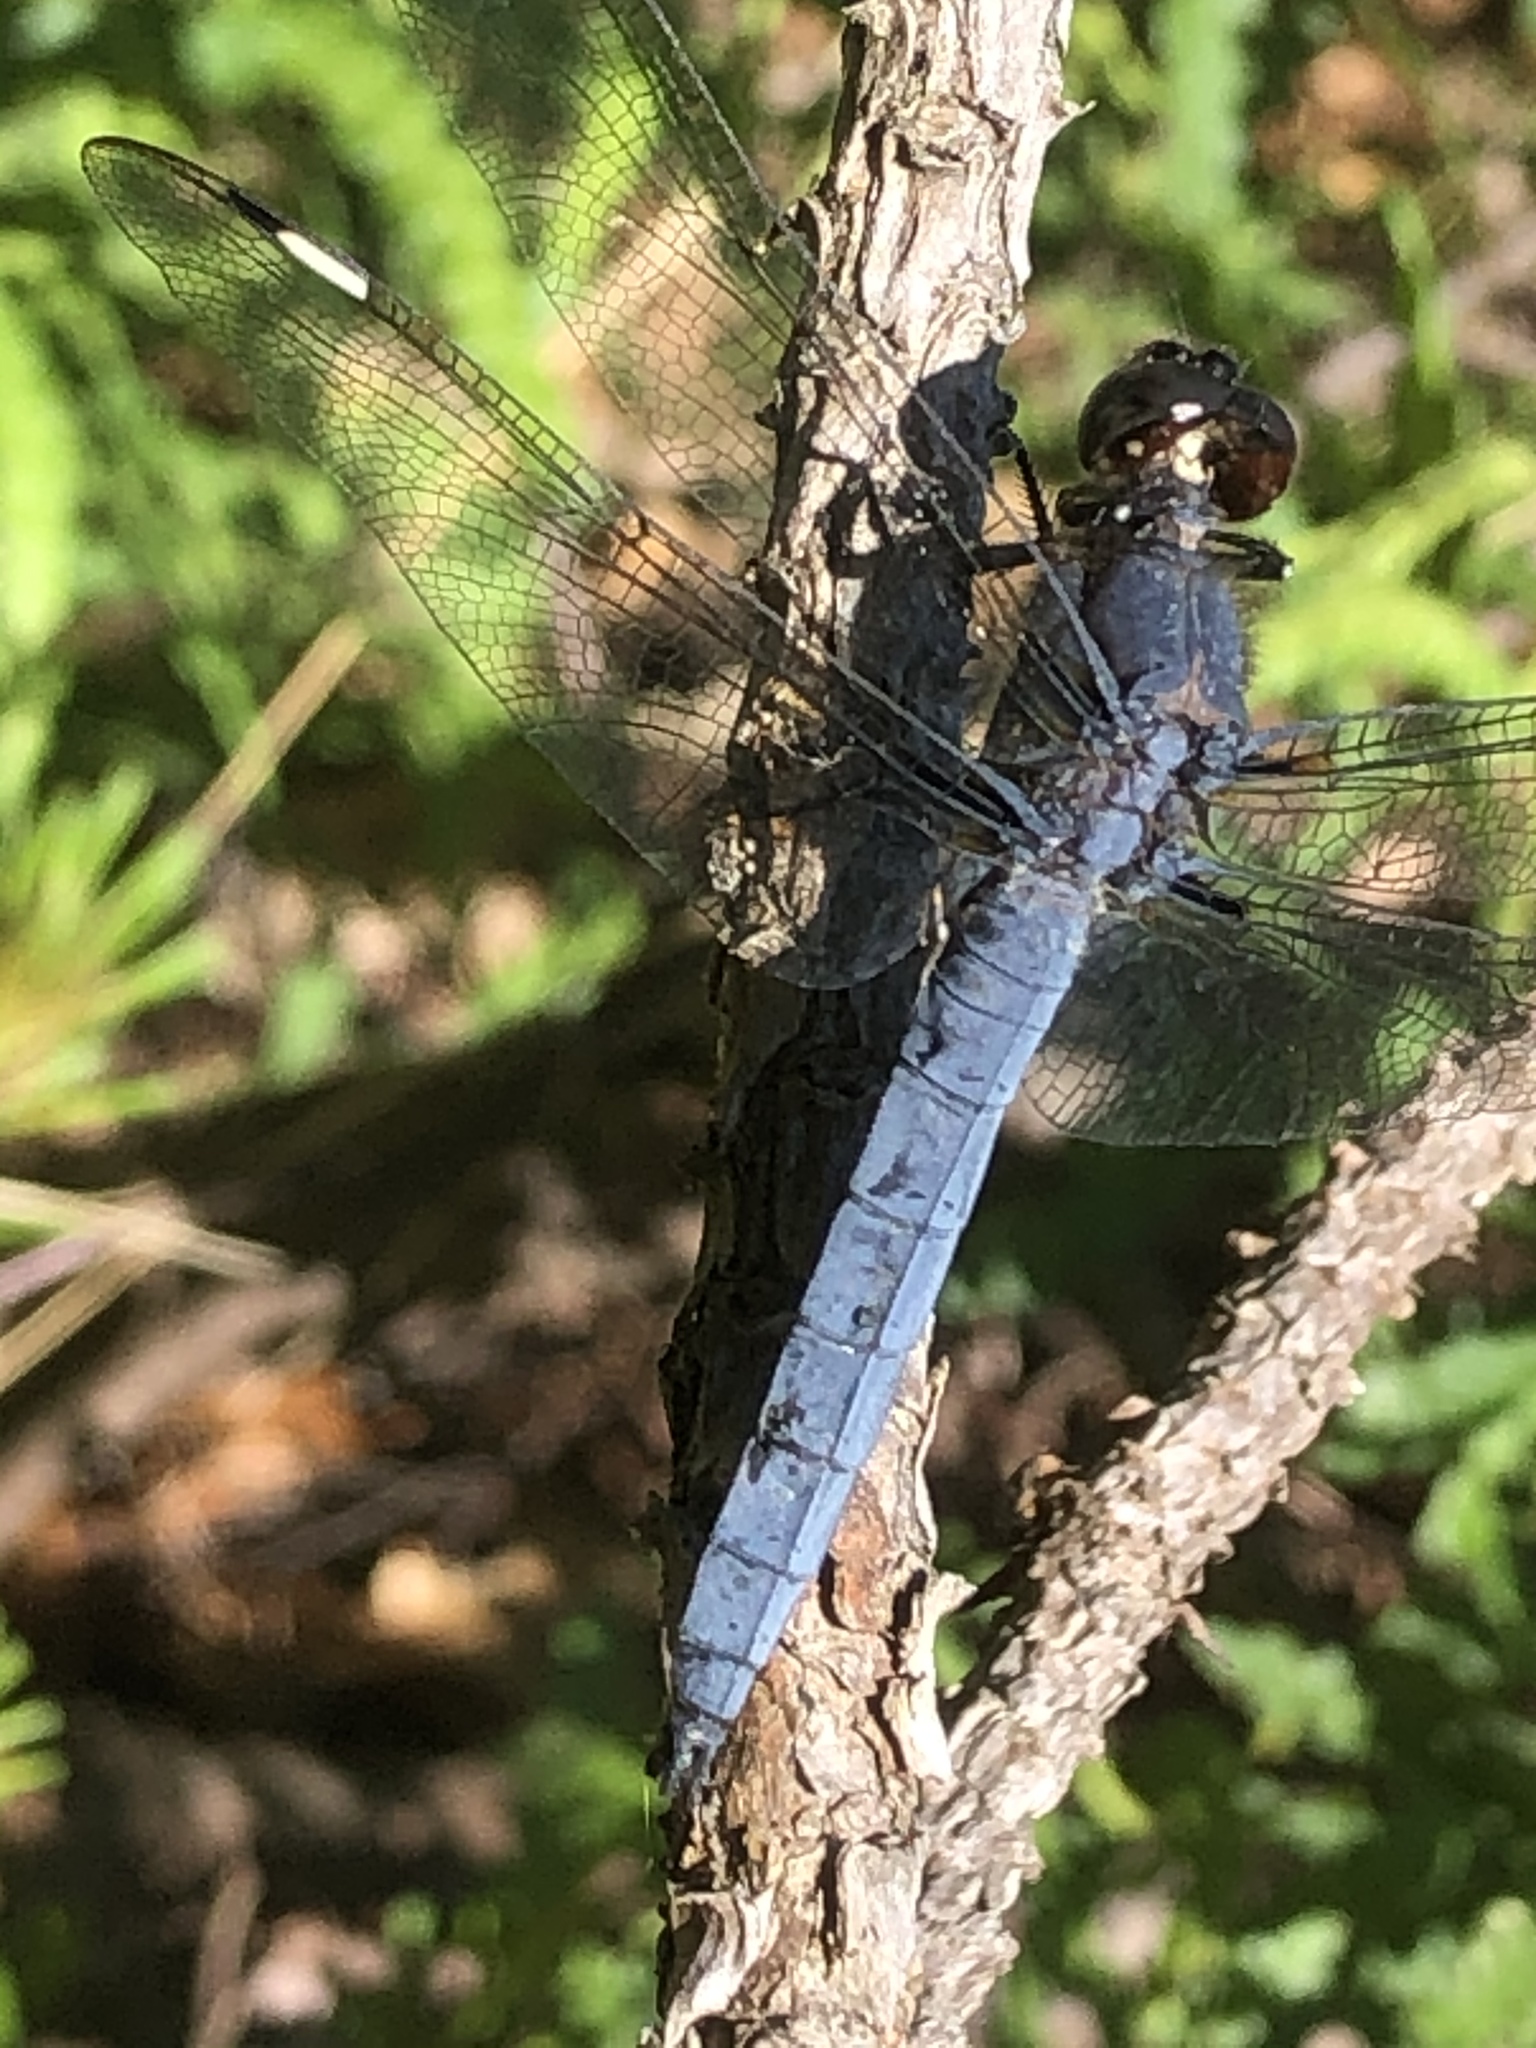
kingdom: Animalia
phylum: Arthropoda
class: Insecta
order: Odonata
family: Libellulidae
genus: Libellula
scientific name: Libellula cyanea
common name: Spangled skimmer
